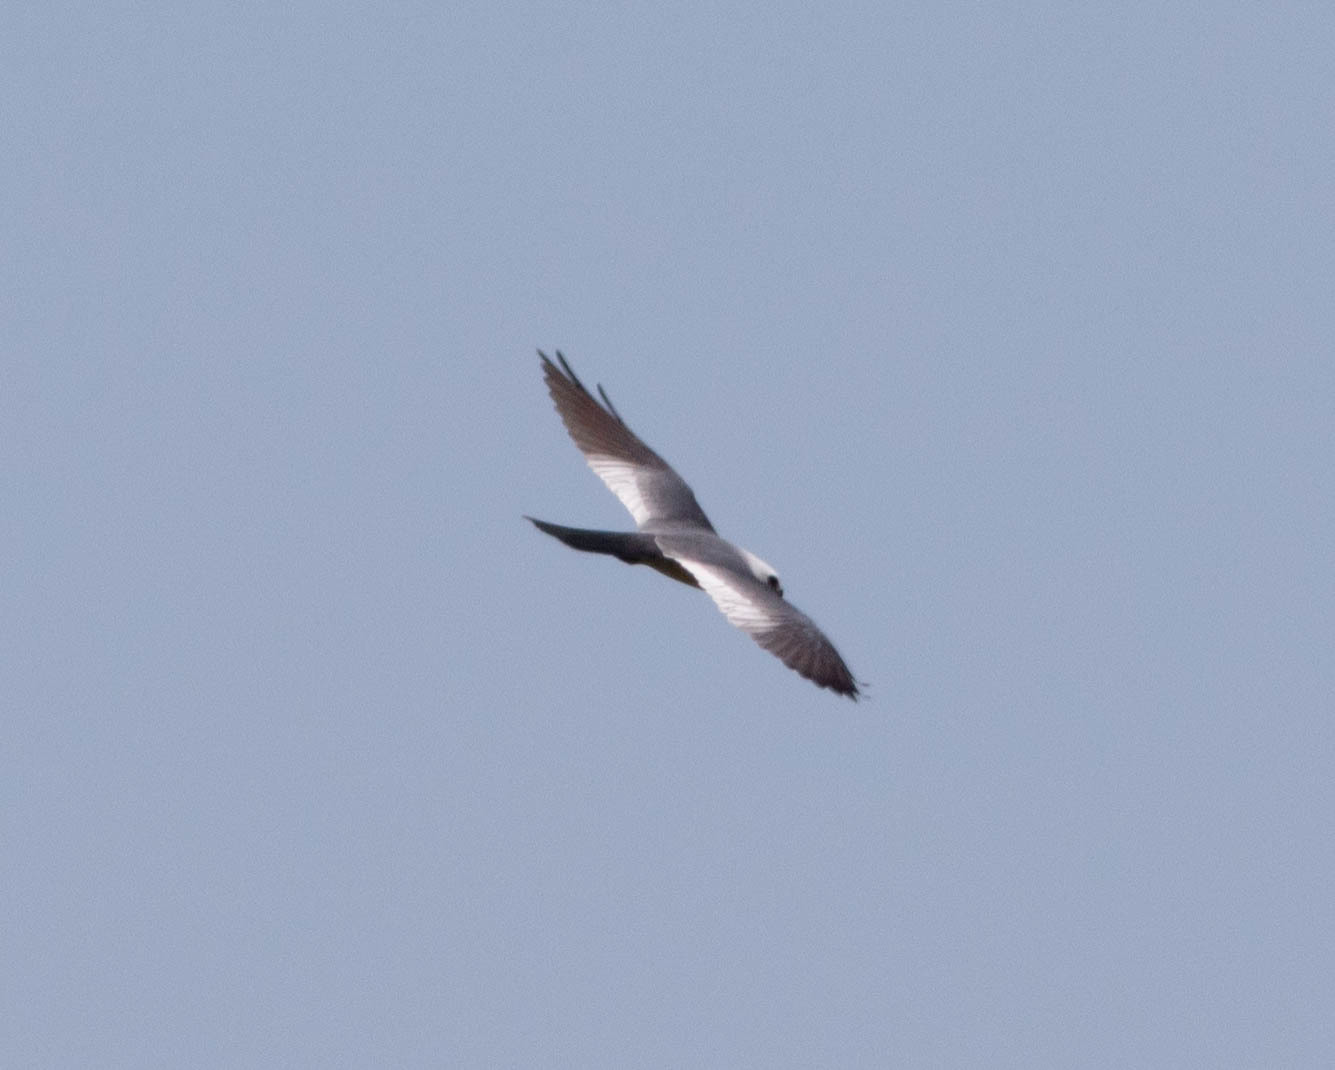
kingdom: Animalia
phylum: Chordata
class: Aves
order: Accipitriformes
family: Accipitridae
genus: Ictinia
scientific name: Ictinia mississippiensis
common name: Mississippi kite
